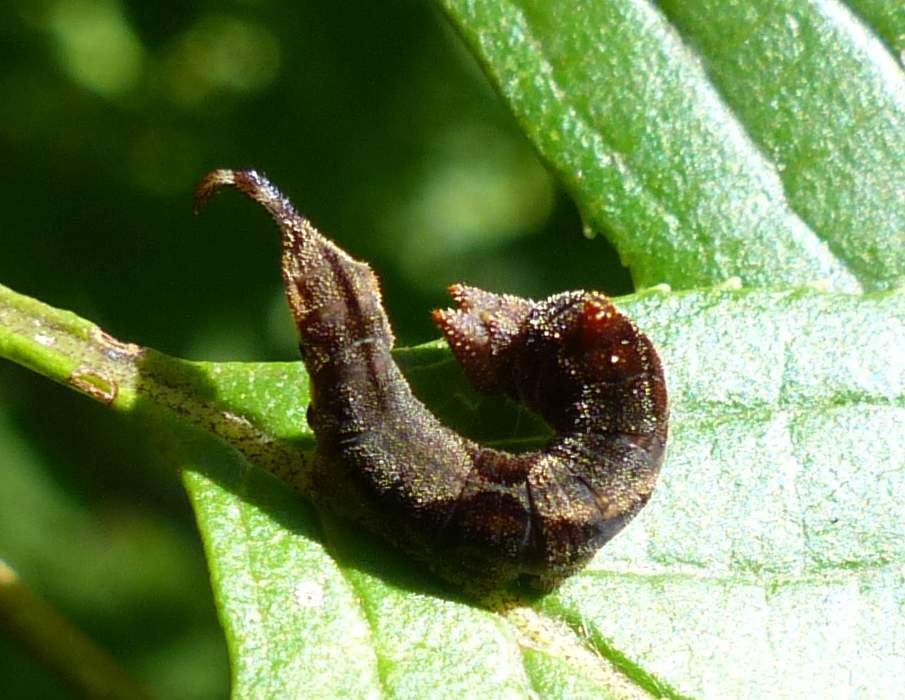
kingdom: Animalia
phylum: Arthropoda
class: Insecta
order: Lepidoptera
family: Drepanidae
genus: Oreta
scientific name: Oreta rosea
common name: Rose hooktip
